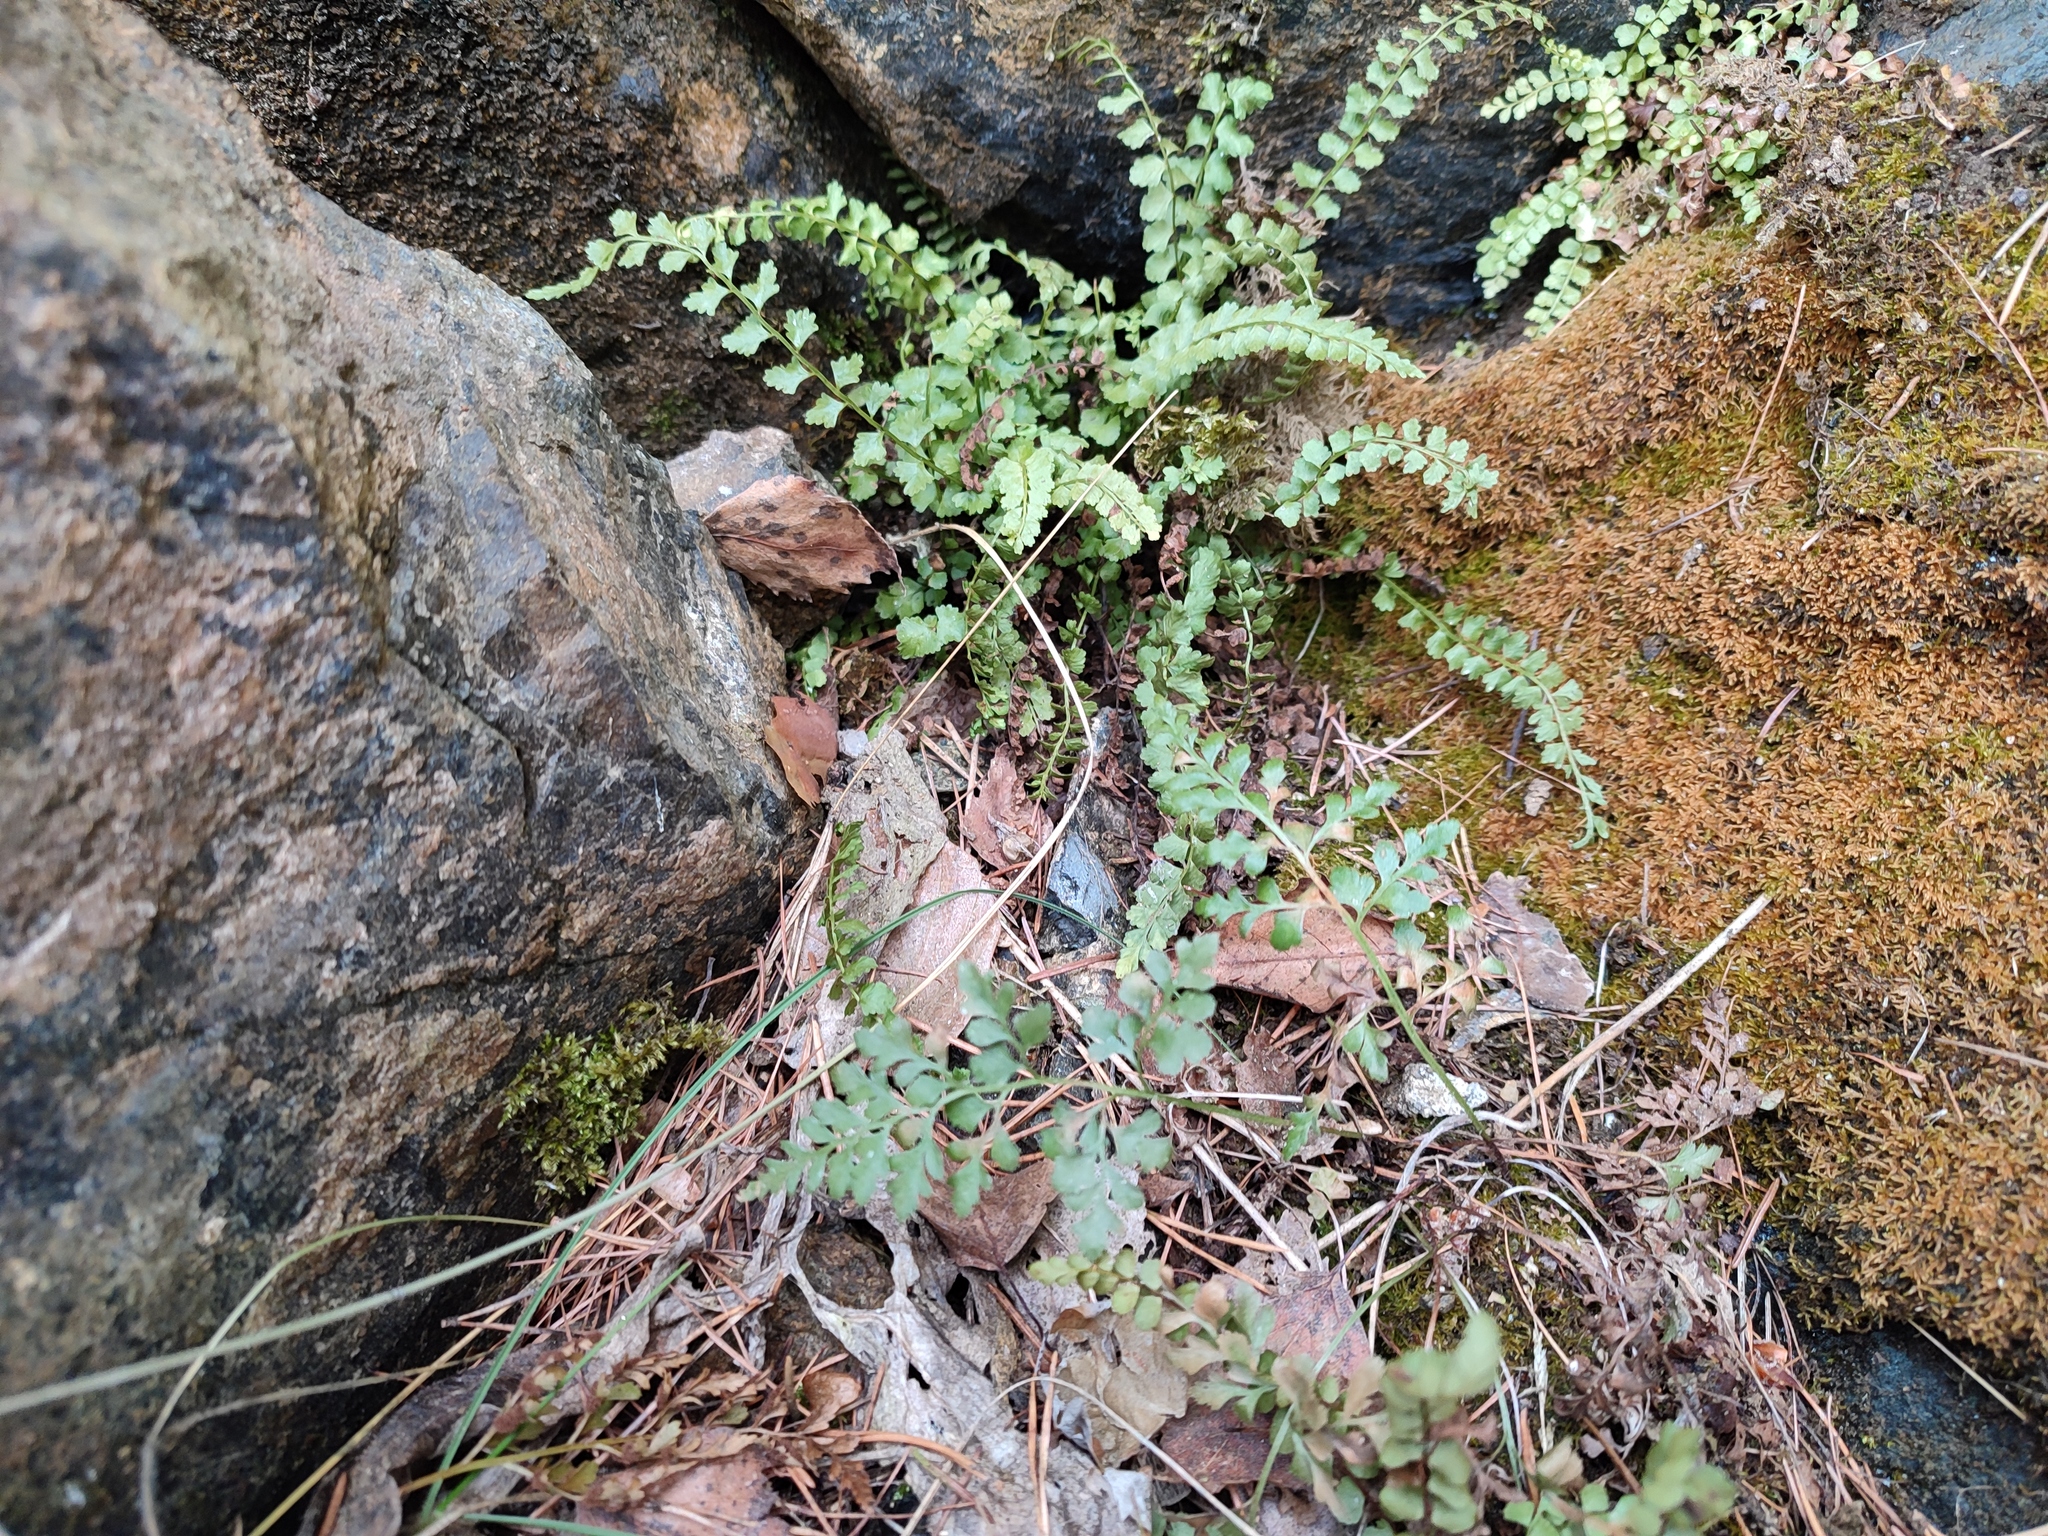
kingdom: Plantae
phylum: Tracheophyta
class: Polypodiopsida
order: Polypodiales
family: Aspleniaceae
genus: Asplenium
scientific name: Asplenium viride
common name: Green spleenwort
